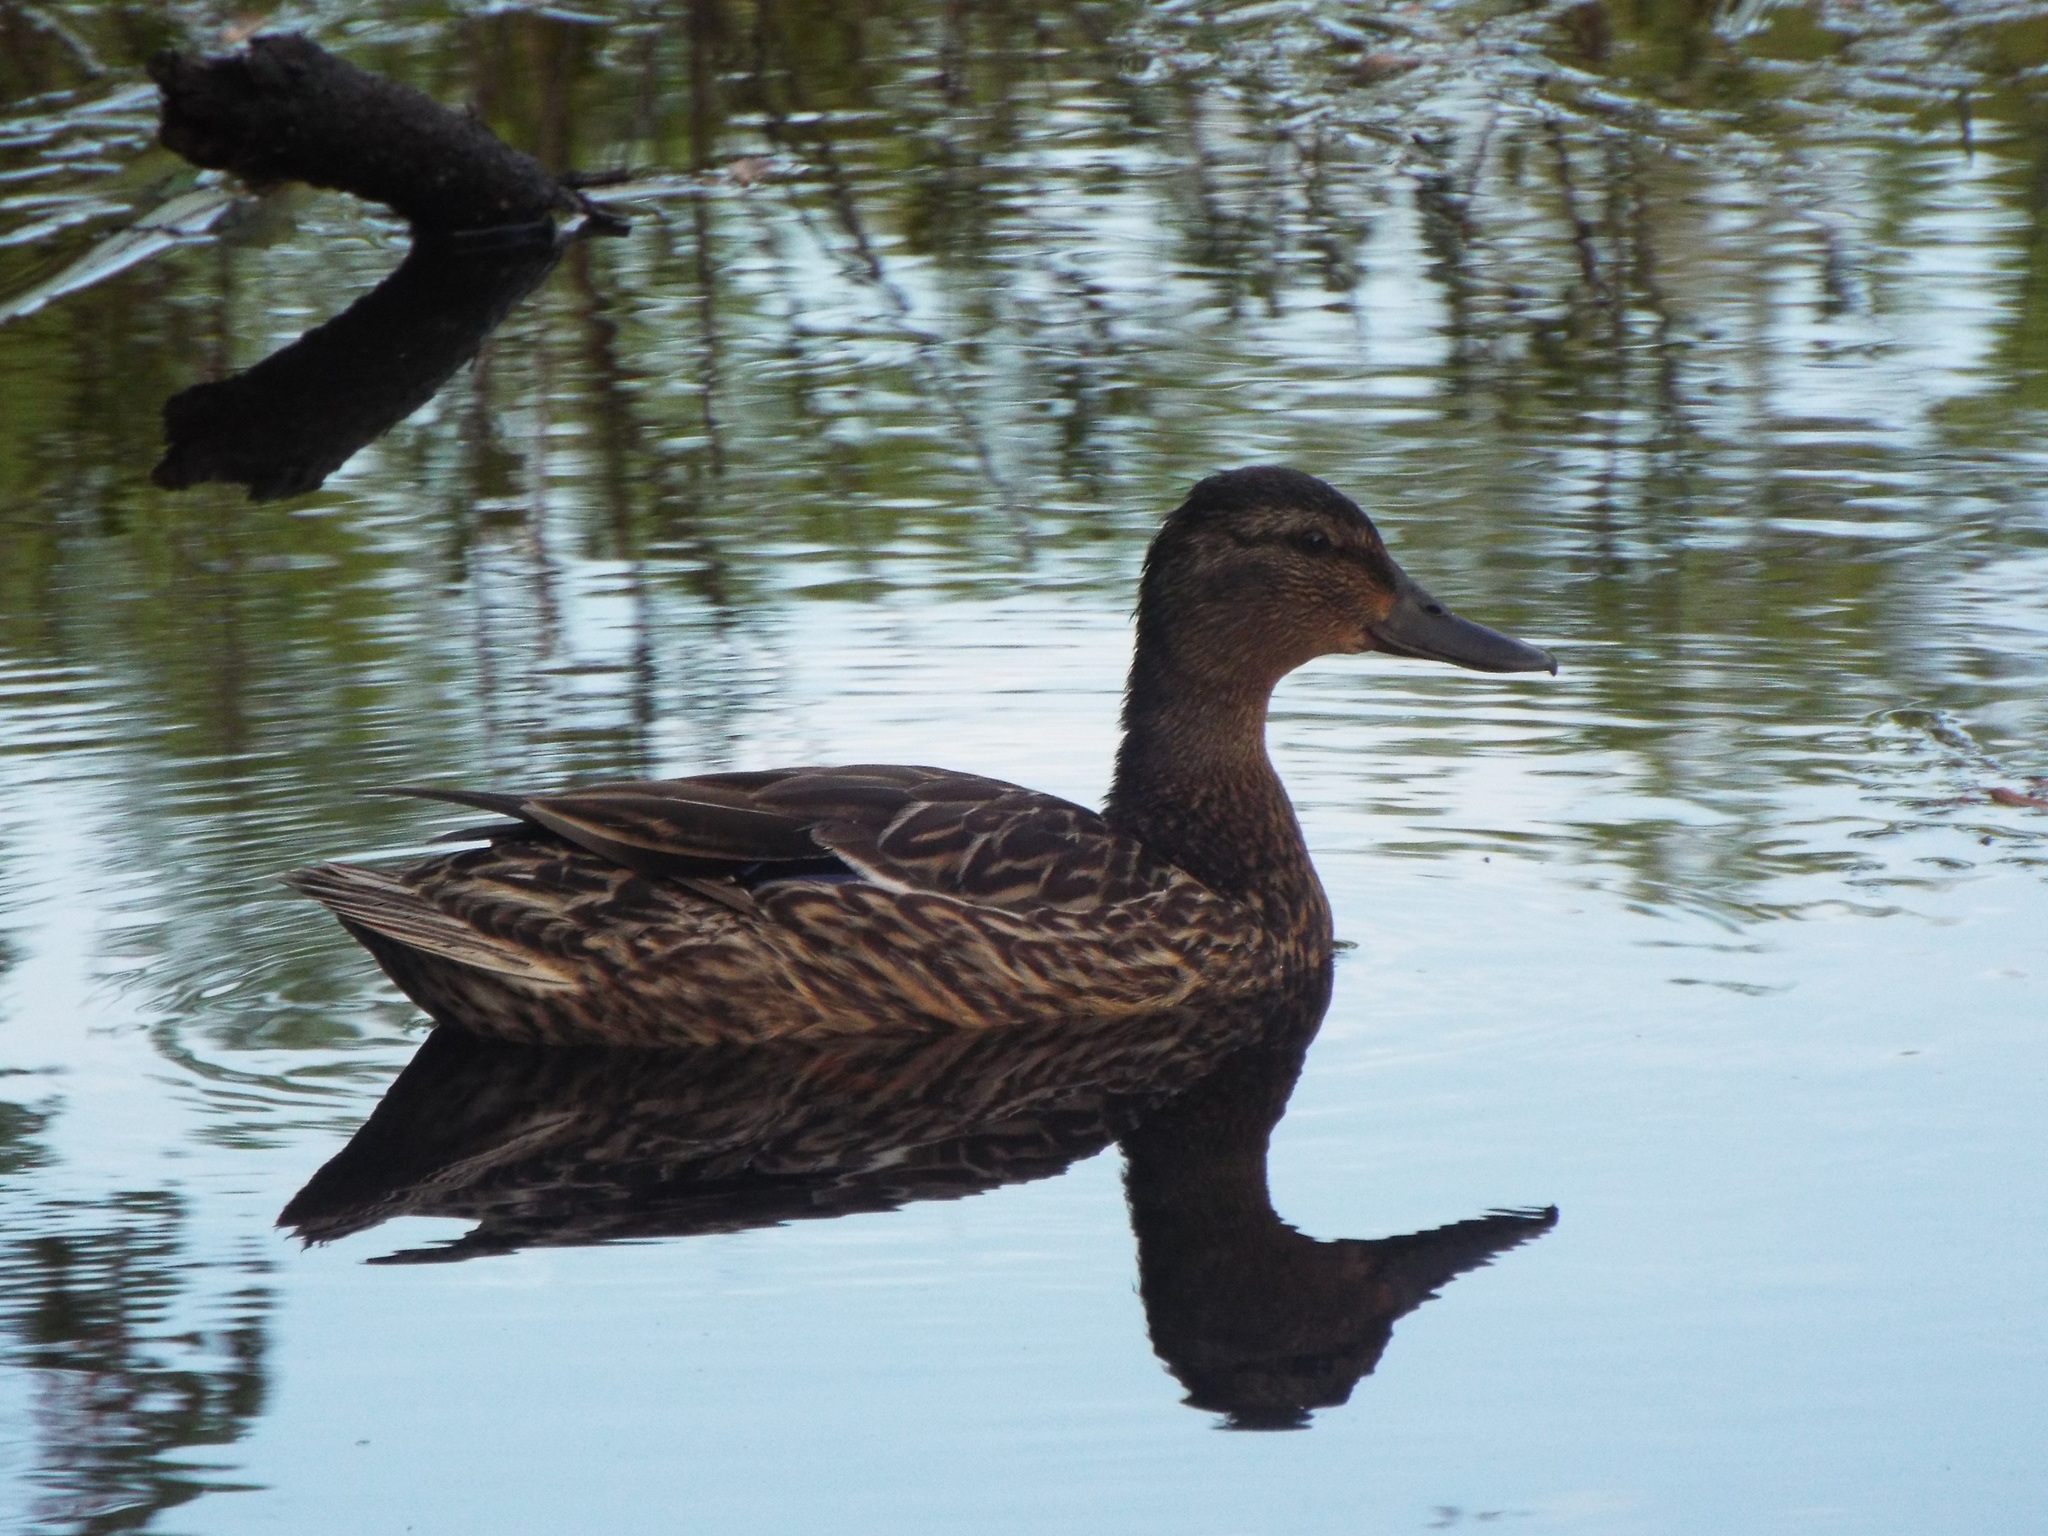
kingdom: Animalia
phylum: Chordata
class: Aves
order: Anseriformes
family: Anatidae
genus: Anas
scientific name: Anas platyrhynchos
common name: Mallard
